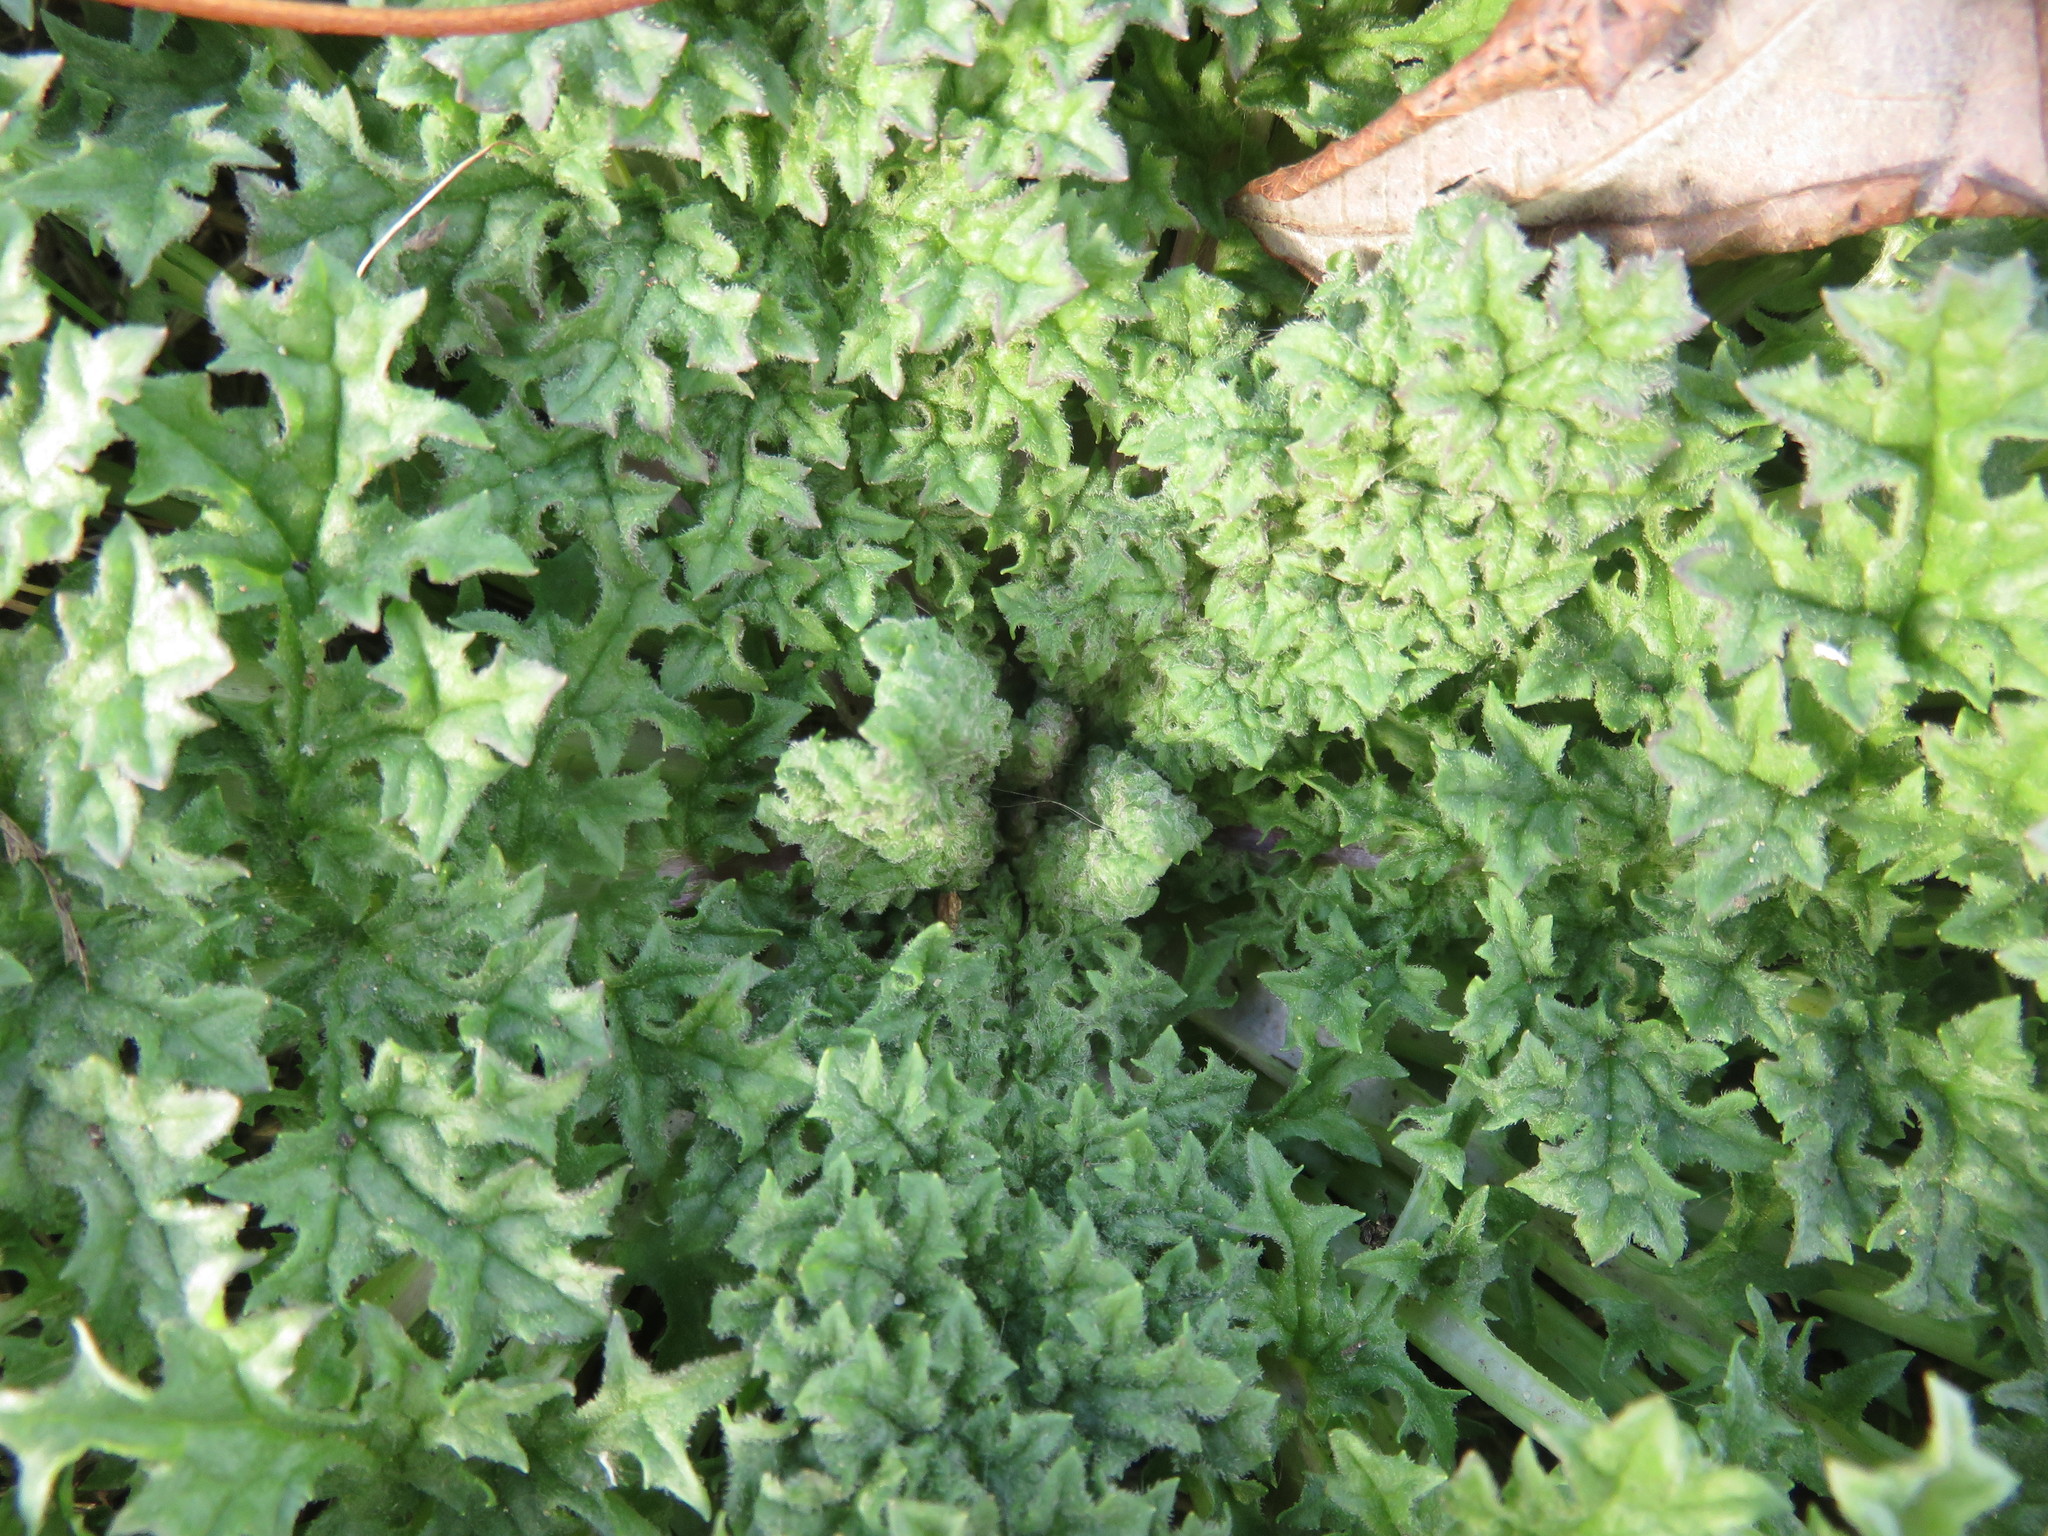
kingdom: Plantae
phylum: Tracheophyta
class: Magnoliopsida
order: Asterales
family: Asteraceae
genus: Jacobaea
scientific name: Jacobaea vulgaris
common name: Stinking willie
